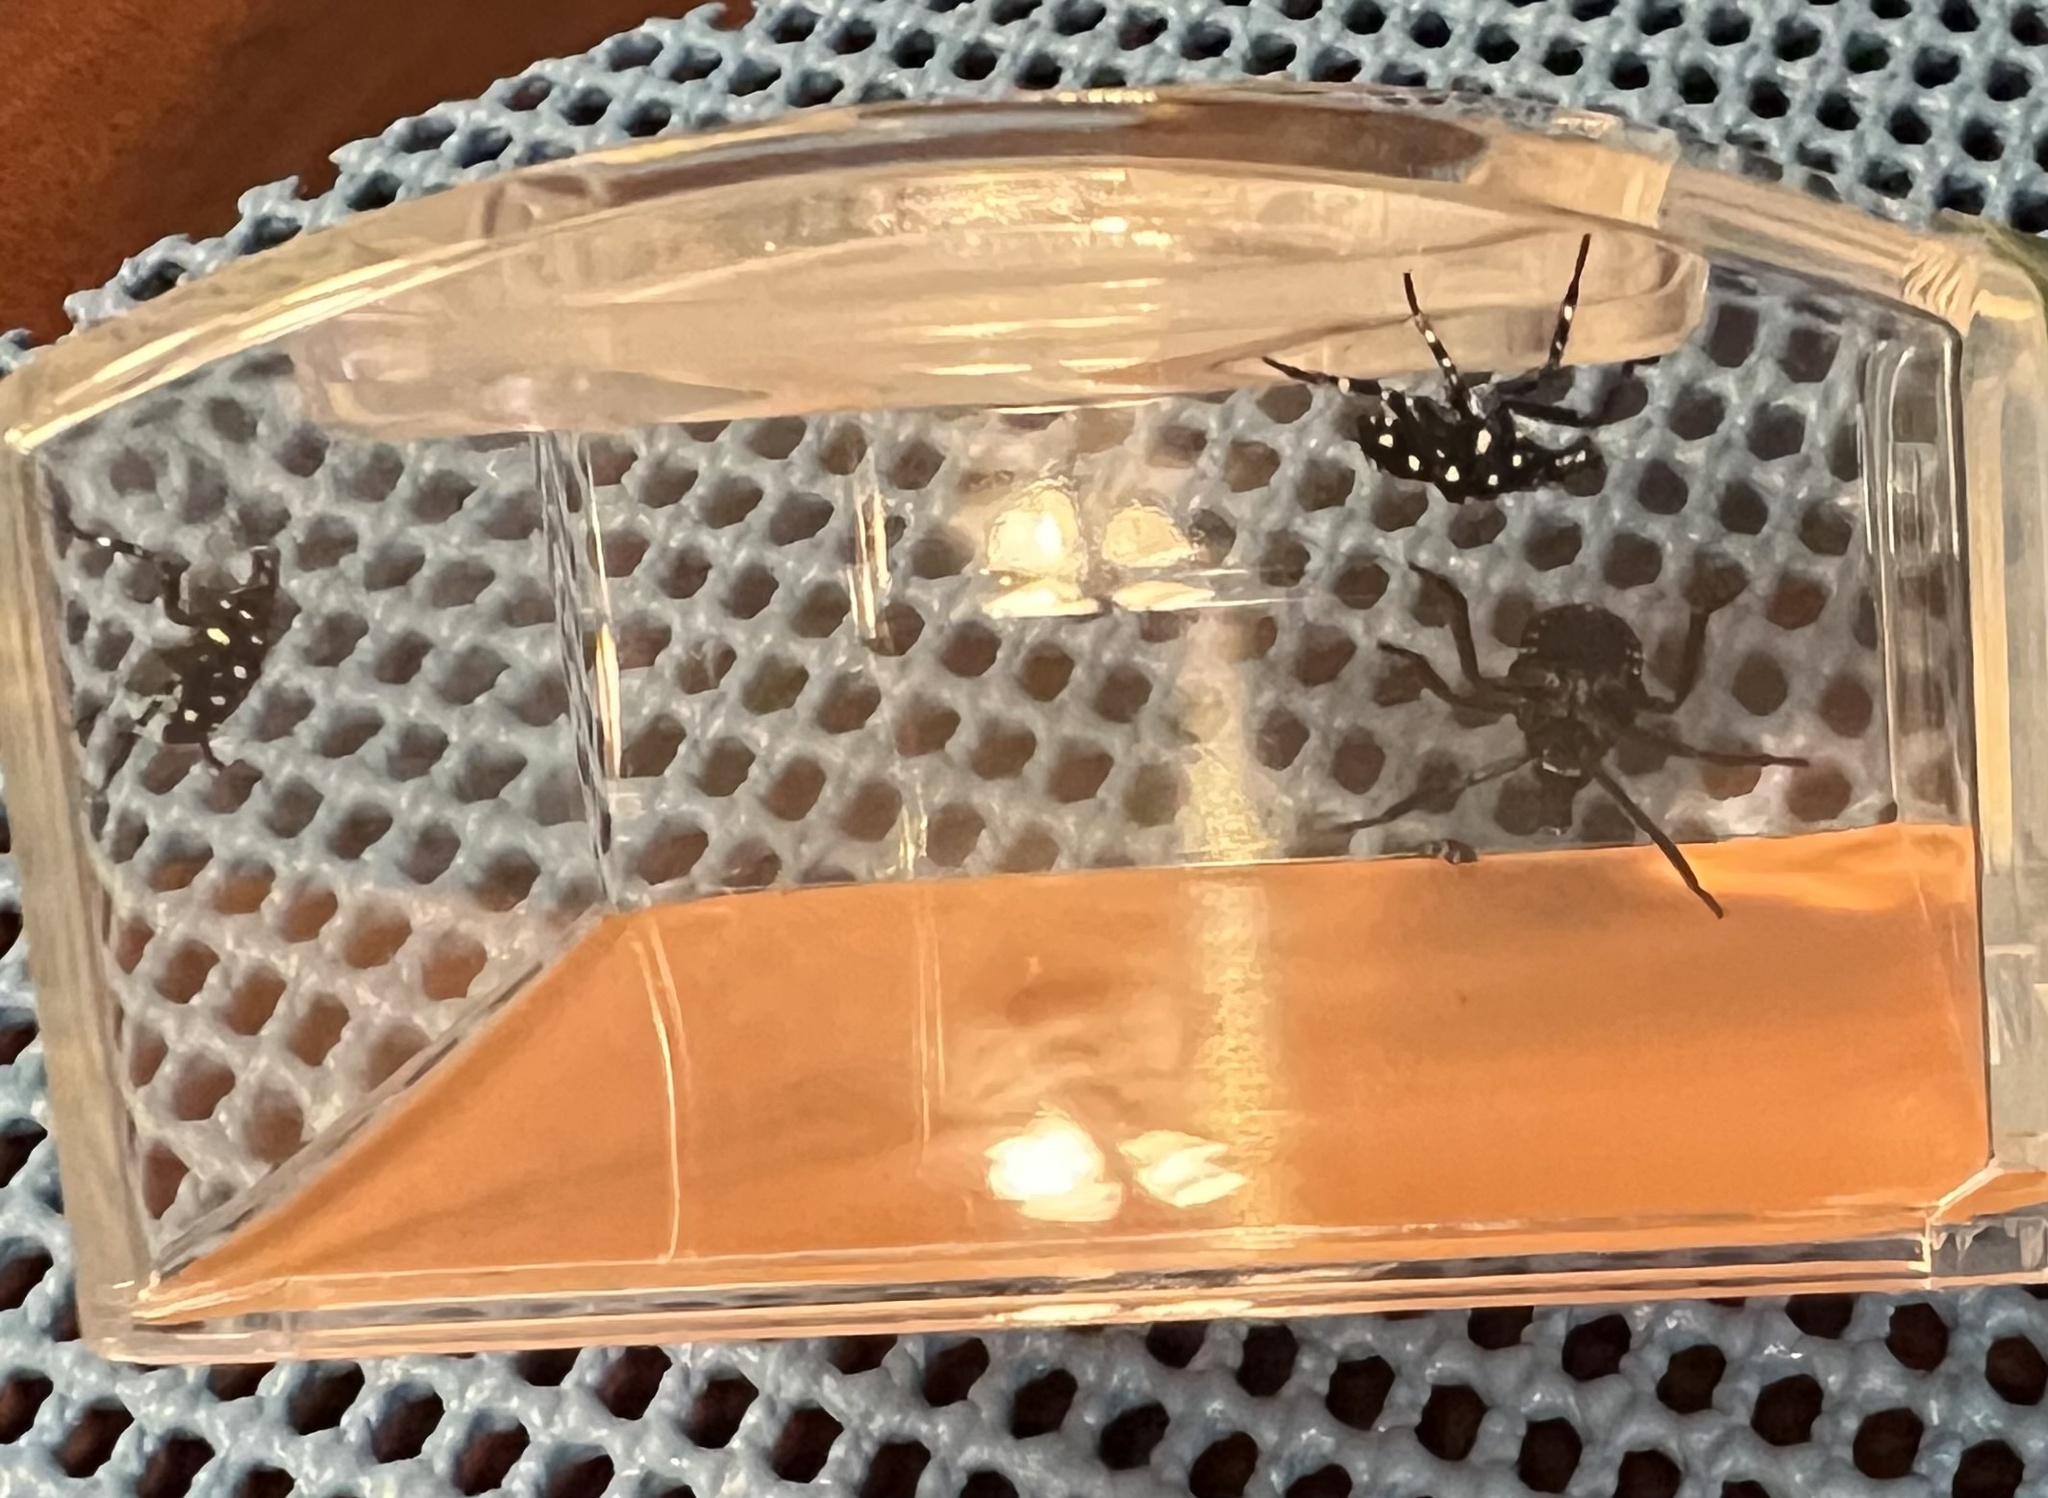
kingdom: Animalia
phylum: Arthropoda
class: Insecta
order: Hemiptera
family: Fulgoridae
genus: Lycorma
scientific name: Lycorma delicatula
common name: Spotted lanternfly
